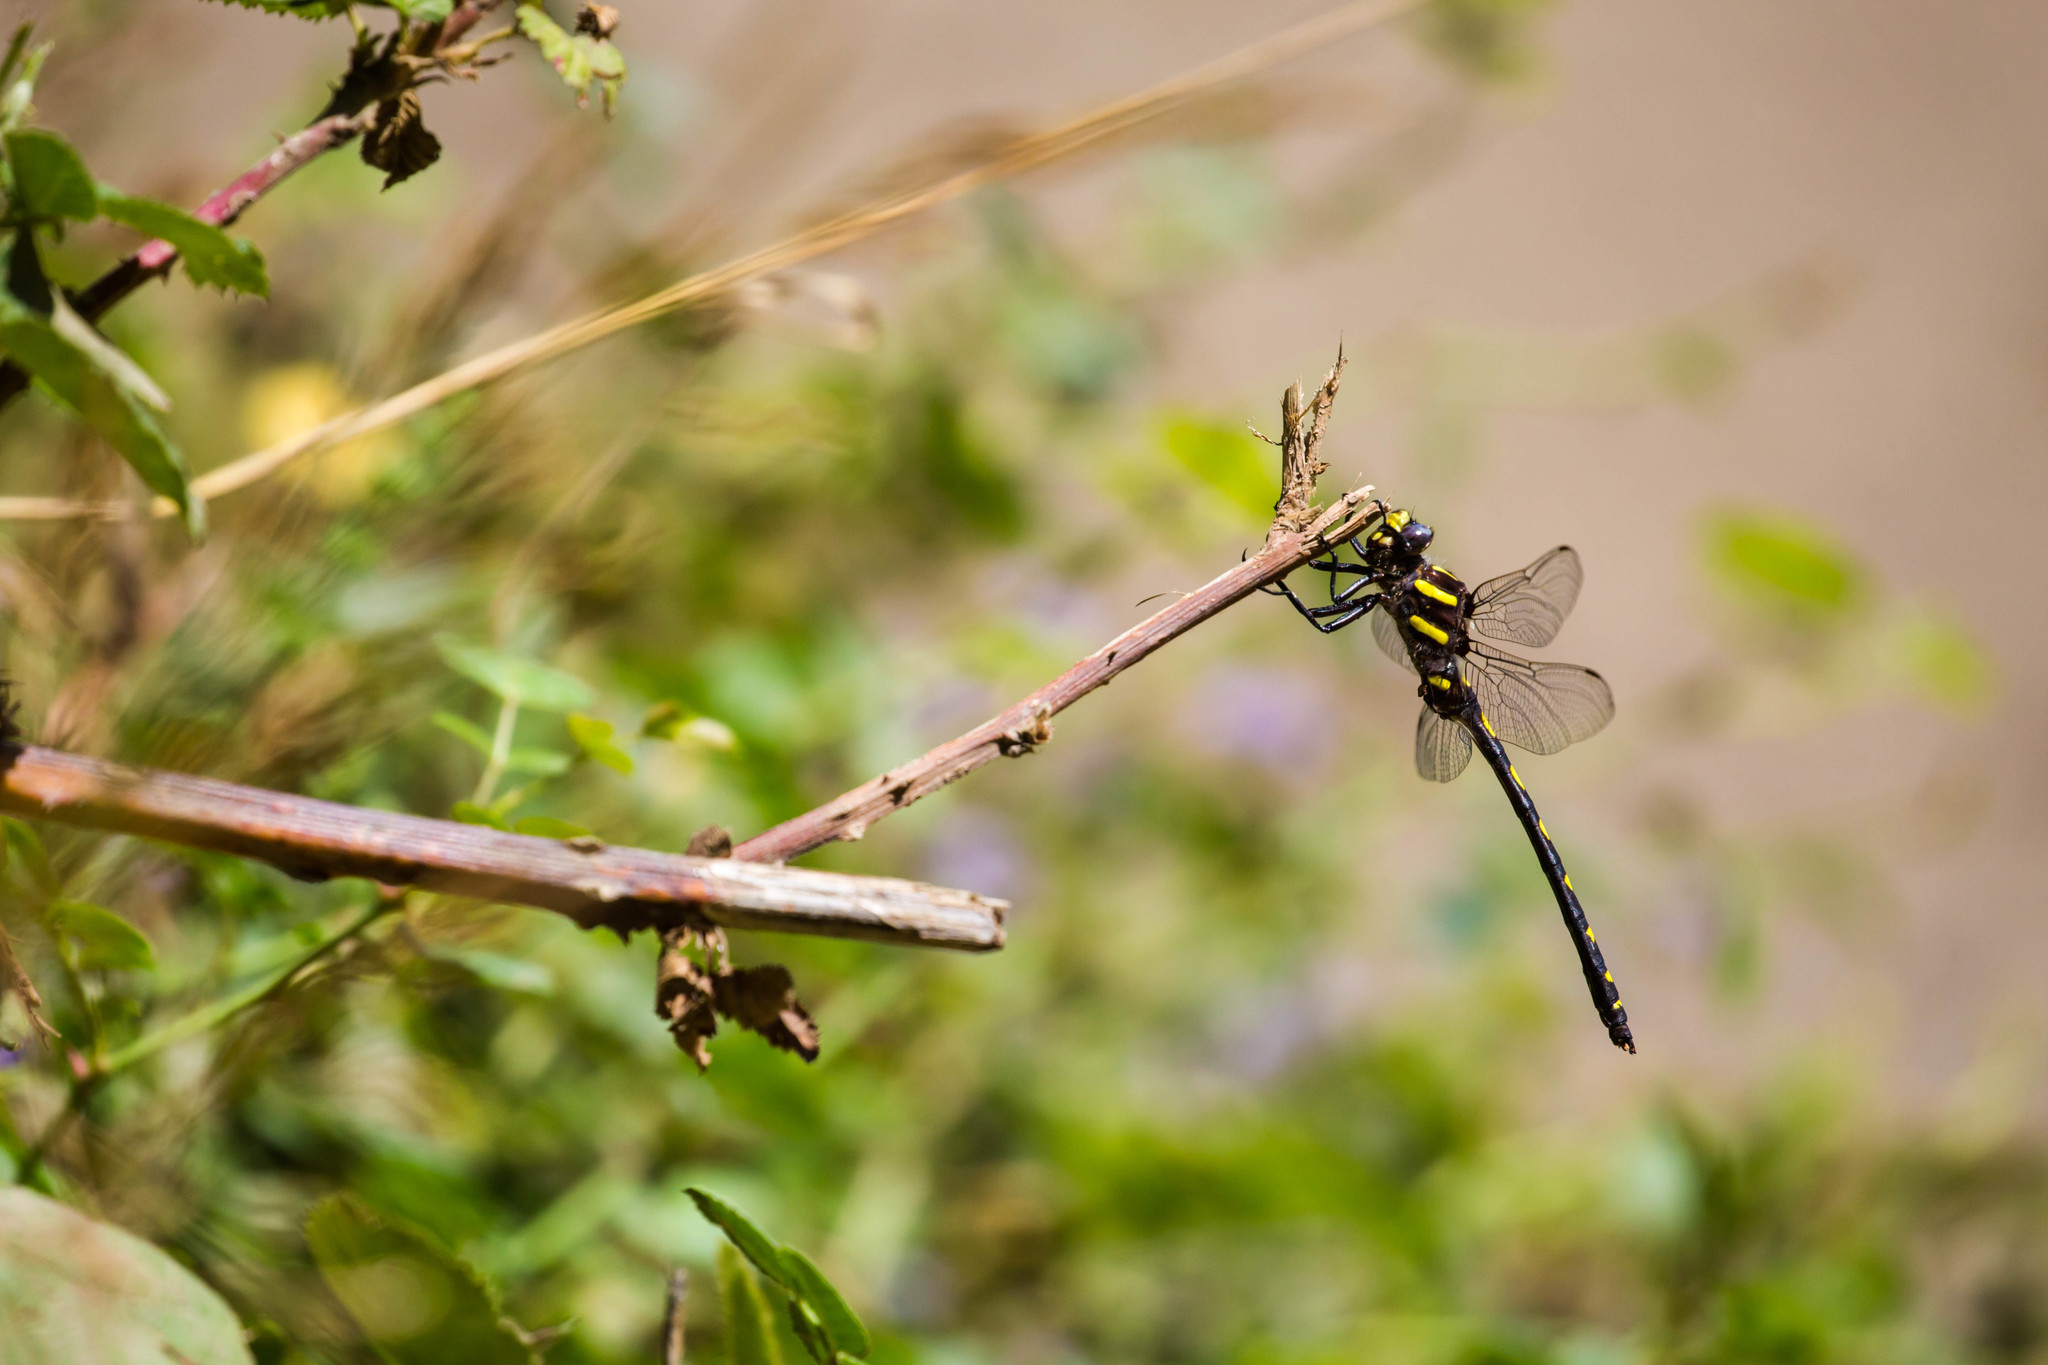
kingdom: Animalia
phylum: Arthropoda
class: Insecta
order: Odonata
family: Cordulegastridae
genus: Cordulegaster
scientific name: Cordulegaster dorsalis
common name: Pacific spiketail
